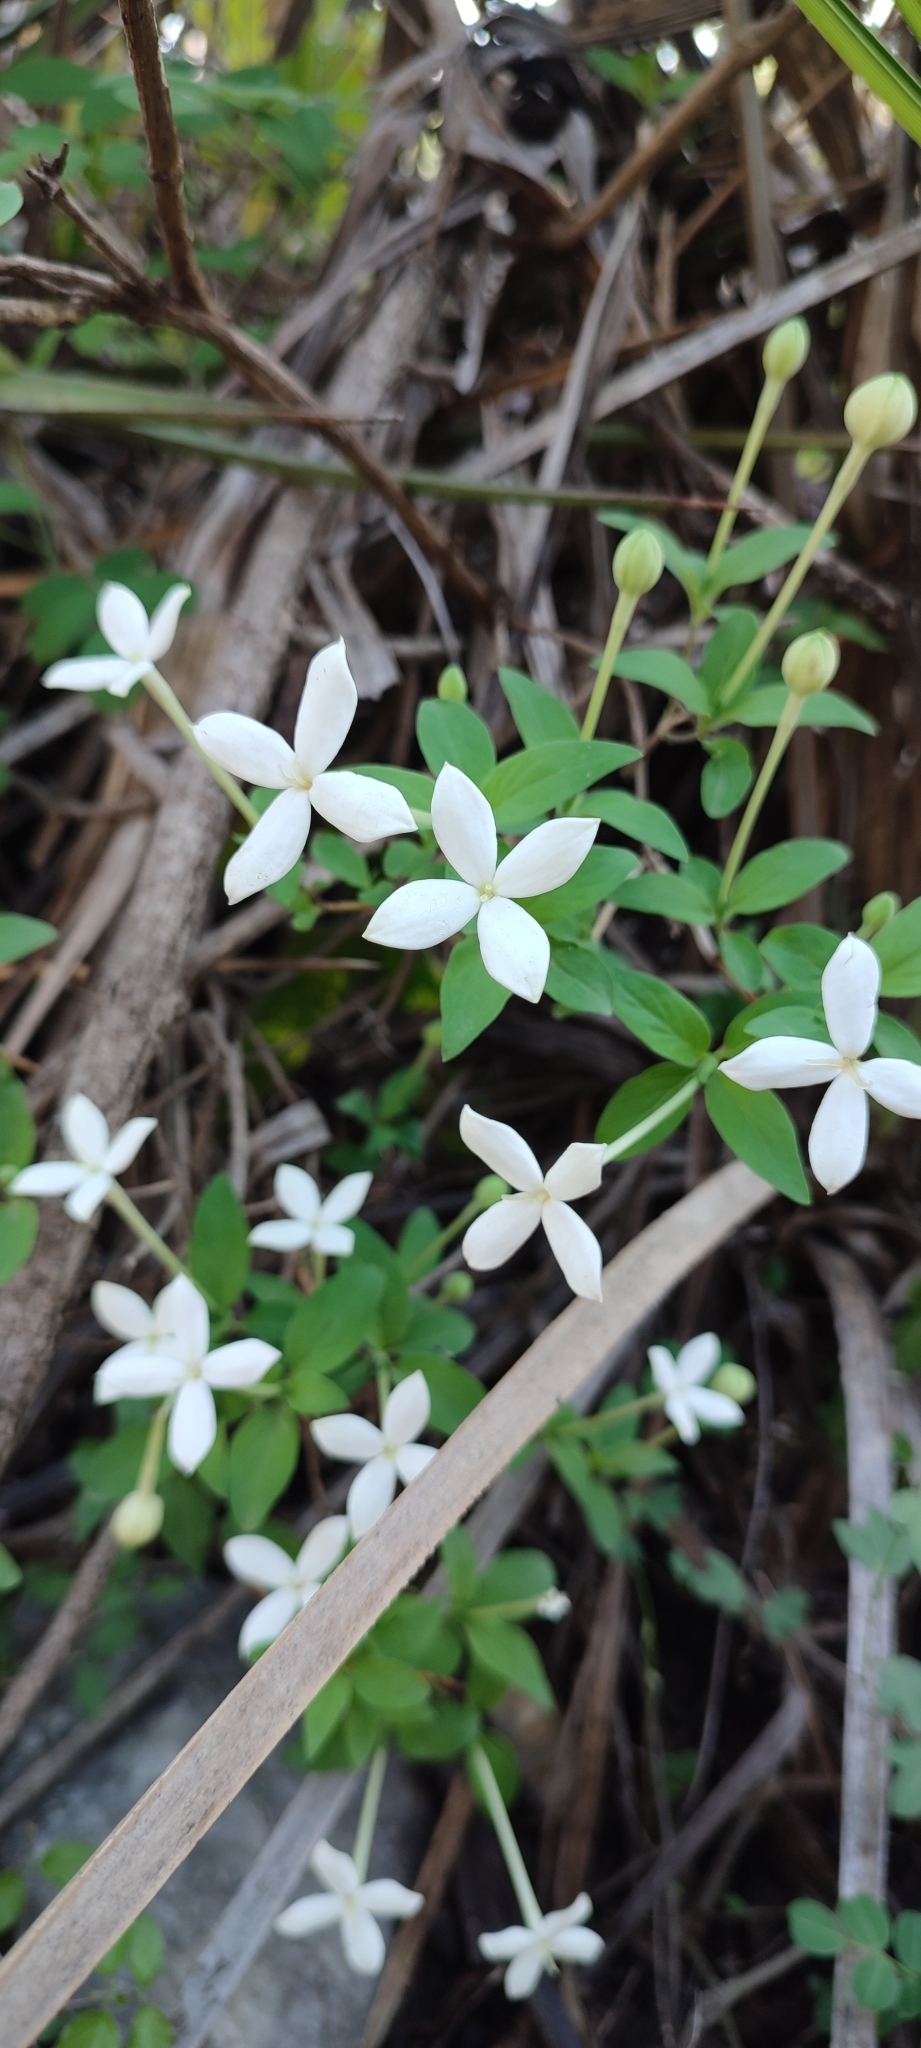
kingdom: Plantae
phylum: Tracheophyta
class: Magnoliopsida
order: Gentianales
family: Rubiaceae
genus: Bouvardia
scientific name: Bouvardia longiflora
